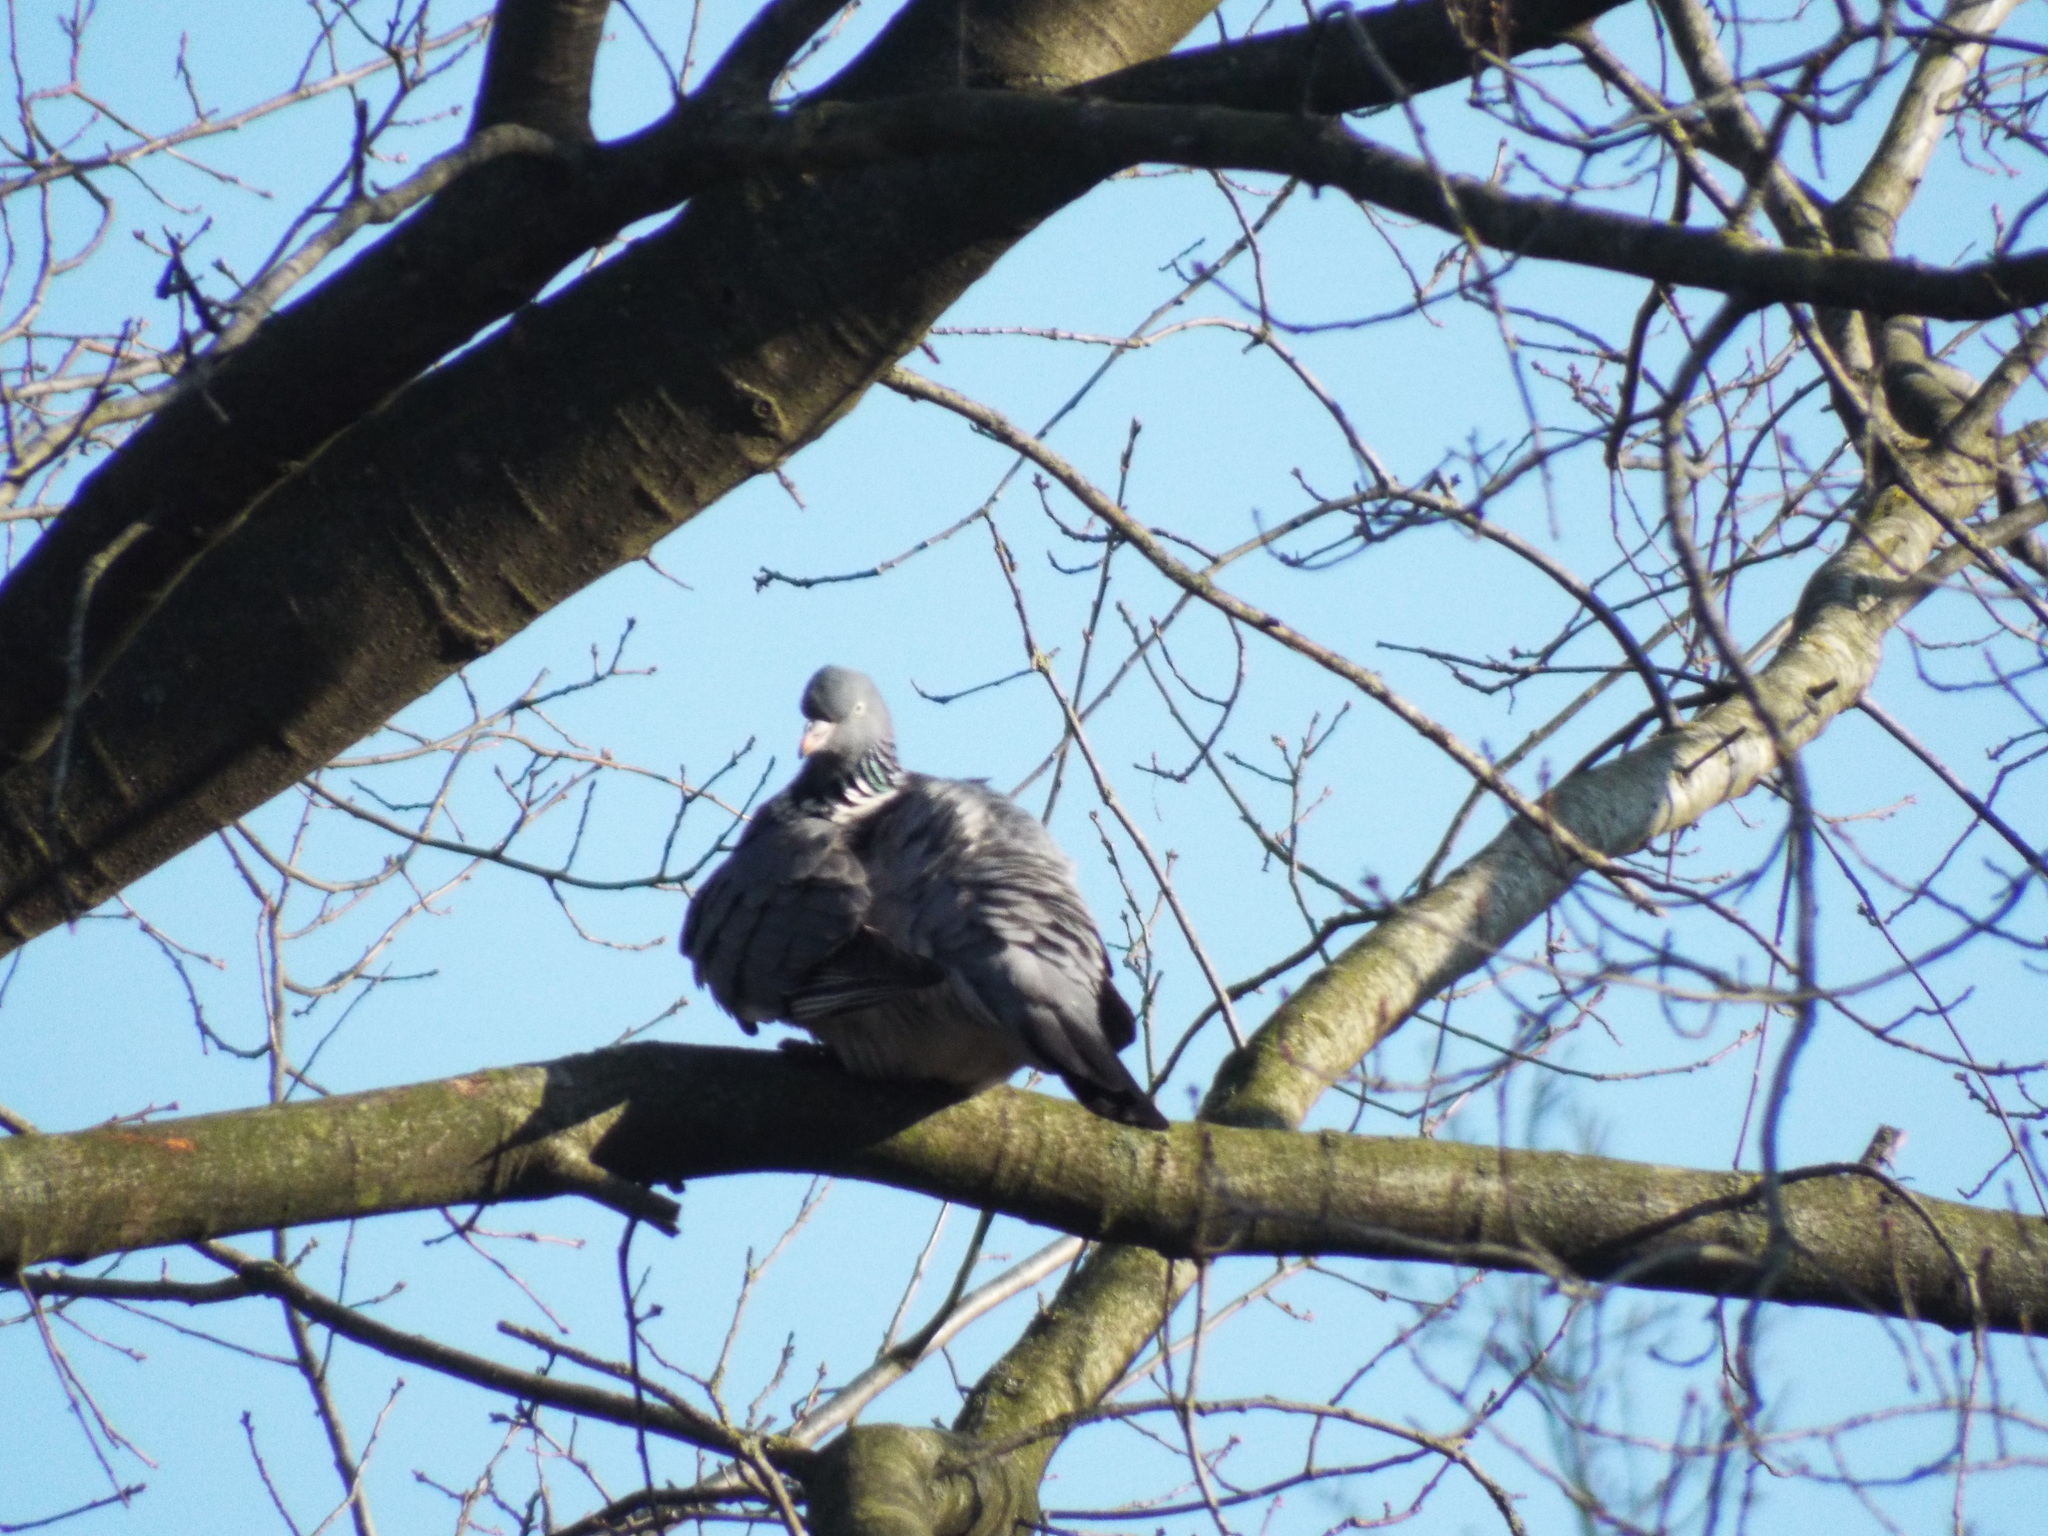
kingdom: Animalia
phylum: Chordata
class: Aves
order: Columbiformes
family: Columbidae
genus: Columba
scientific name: Columba palumbus
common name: Common wood pigeon
